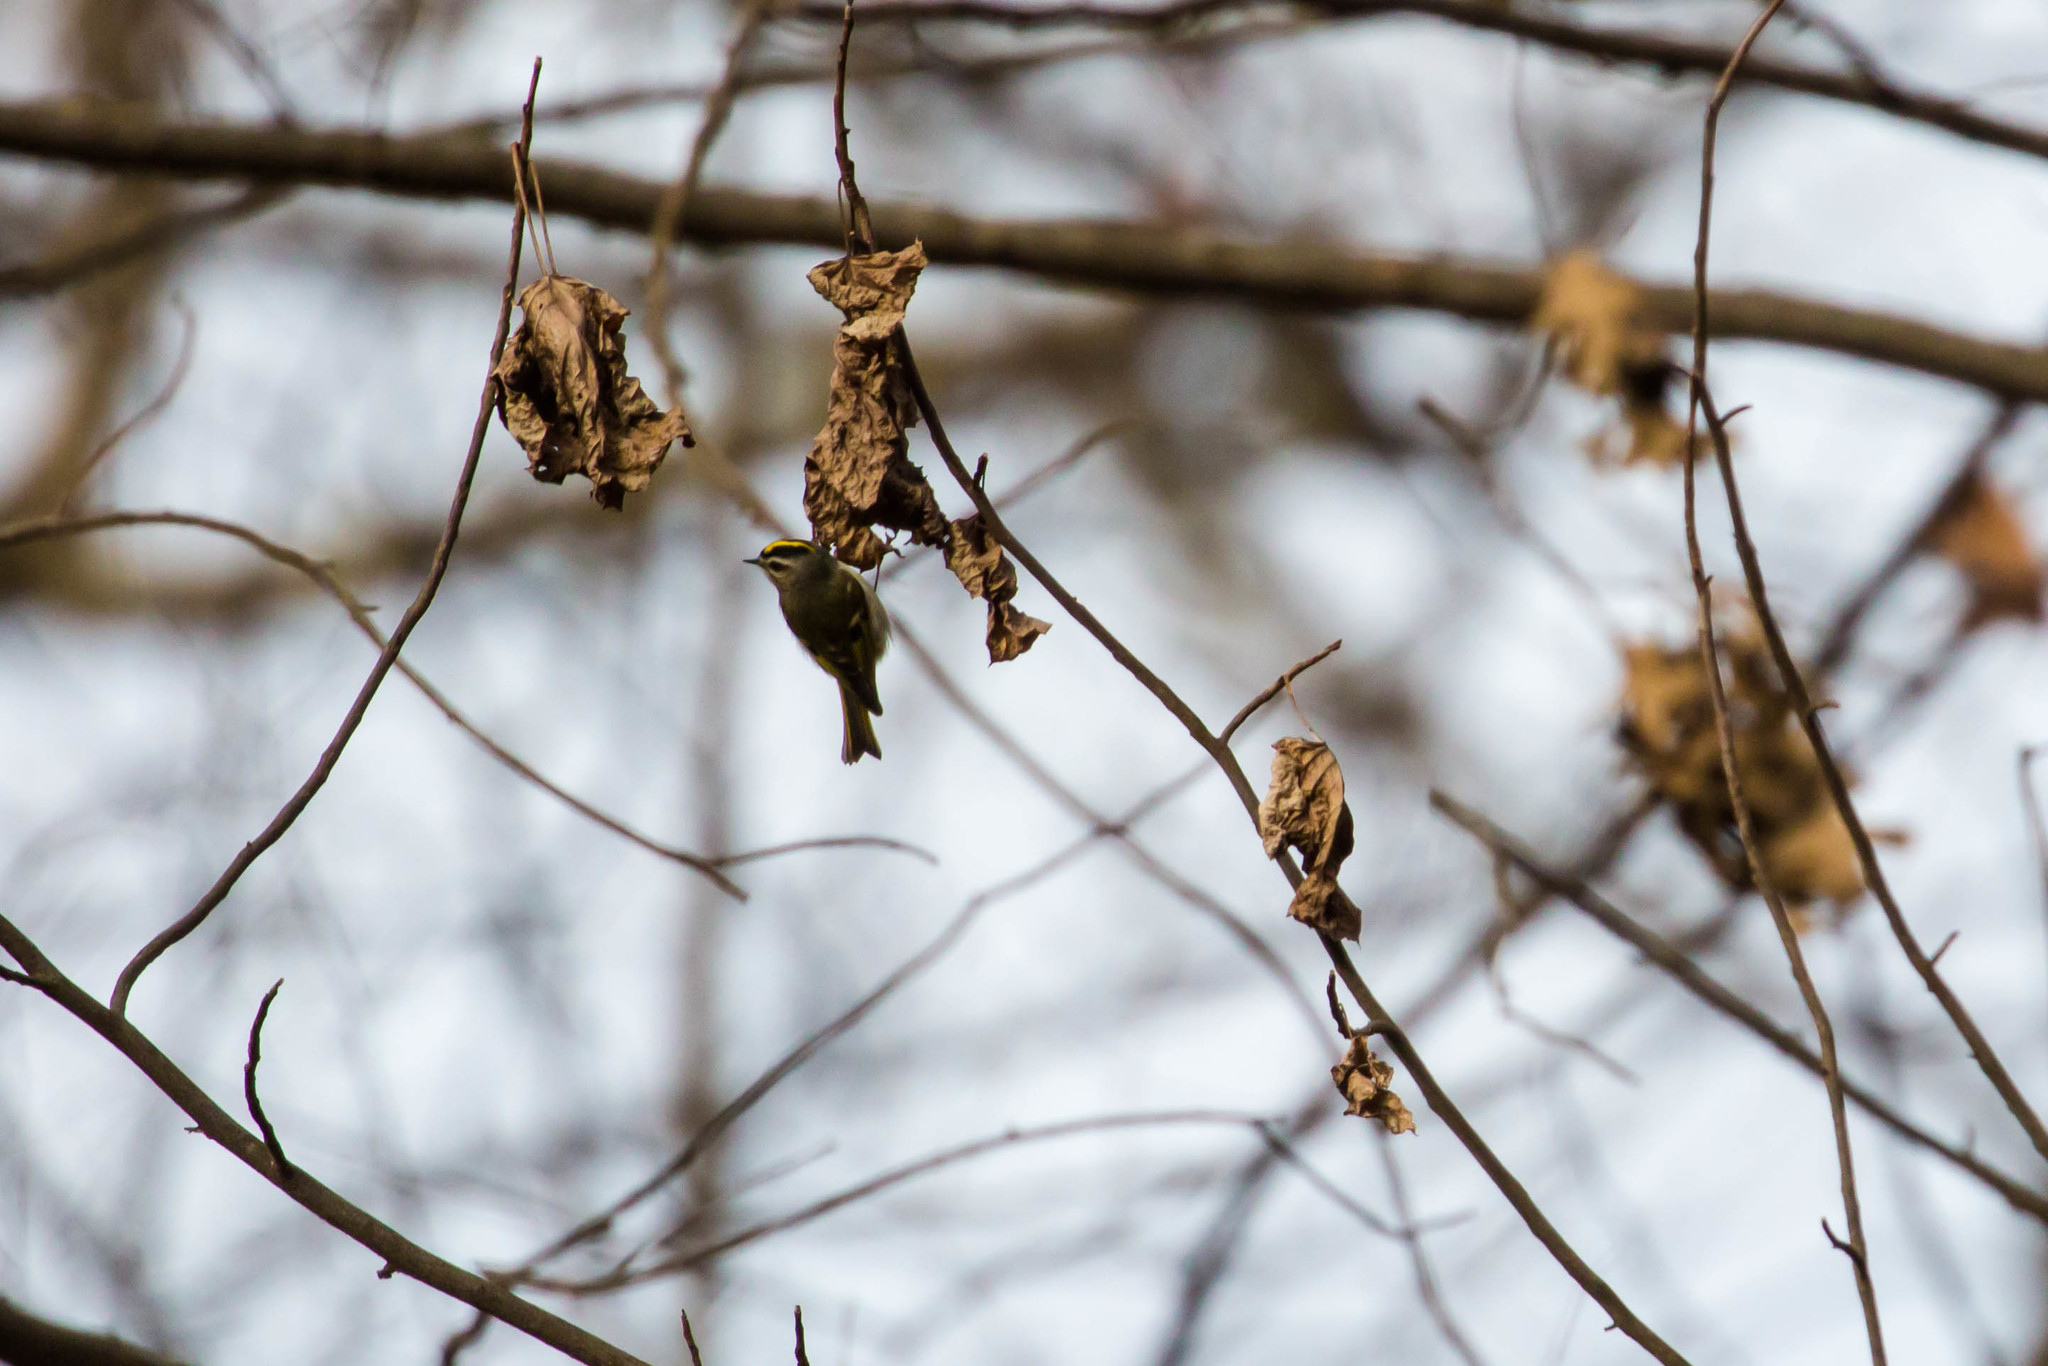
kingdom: Animalia
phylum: Chordata
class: Aves
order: Passeriformes
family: Regulidae
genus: Regulus
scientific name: Regulus satrapa
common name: Golden-crowned kinglet
